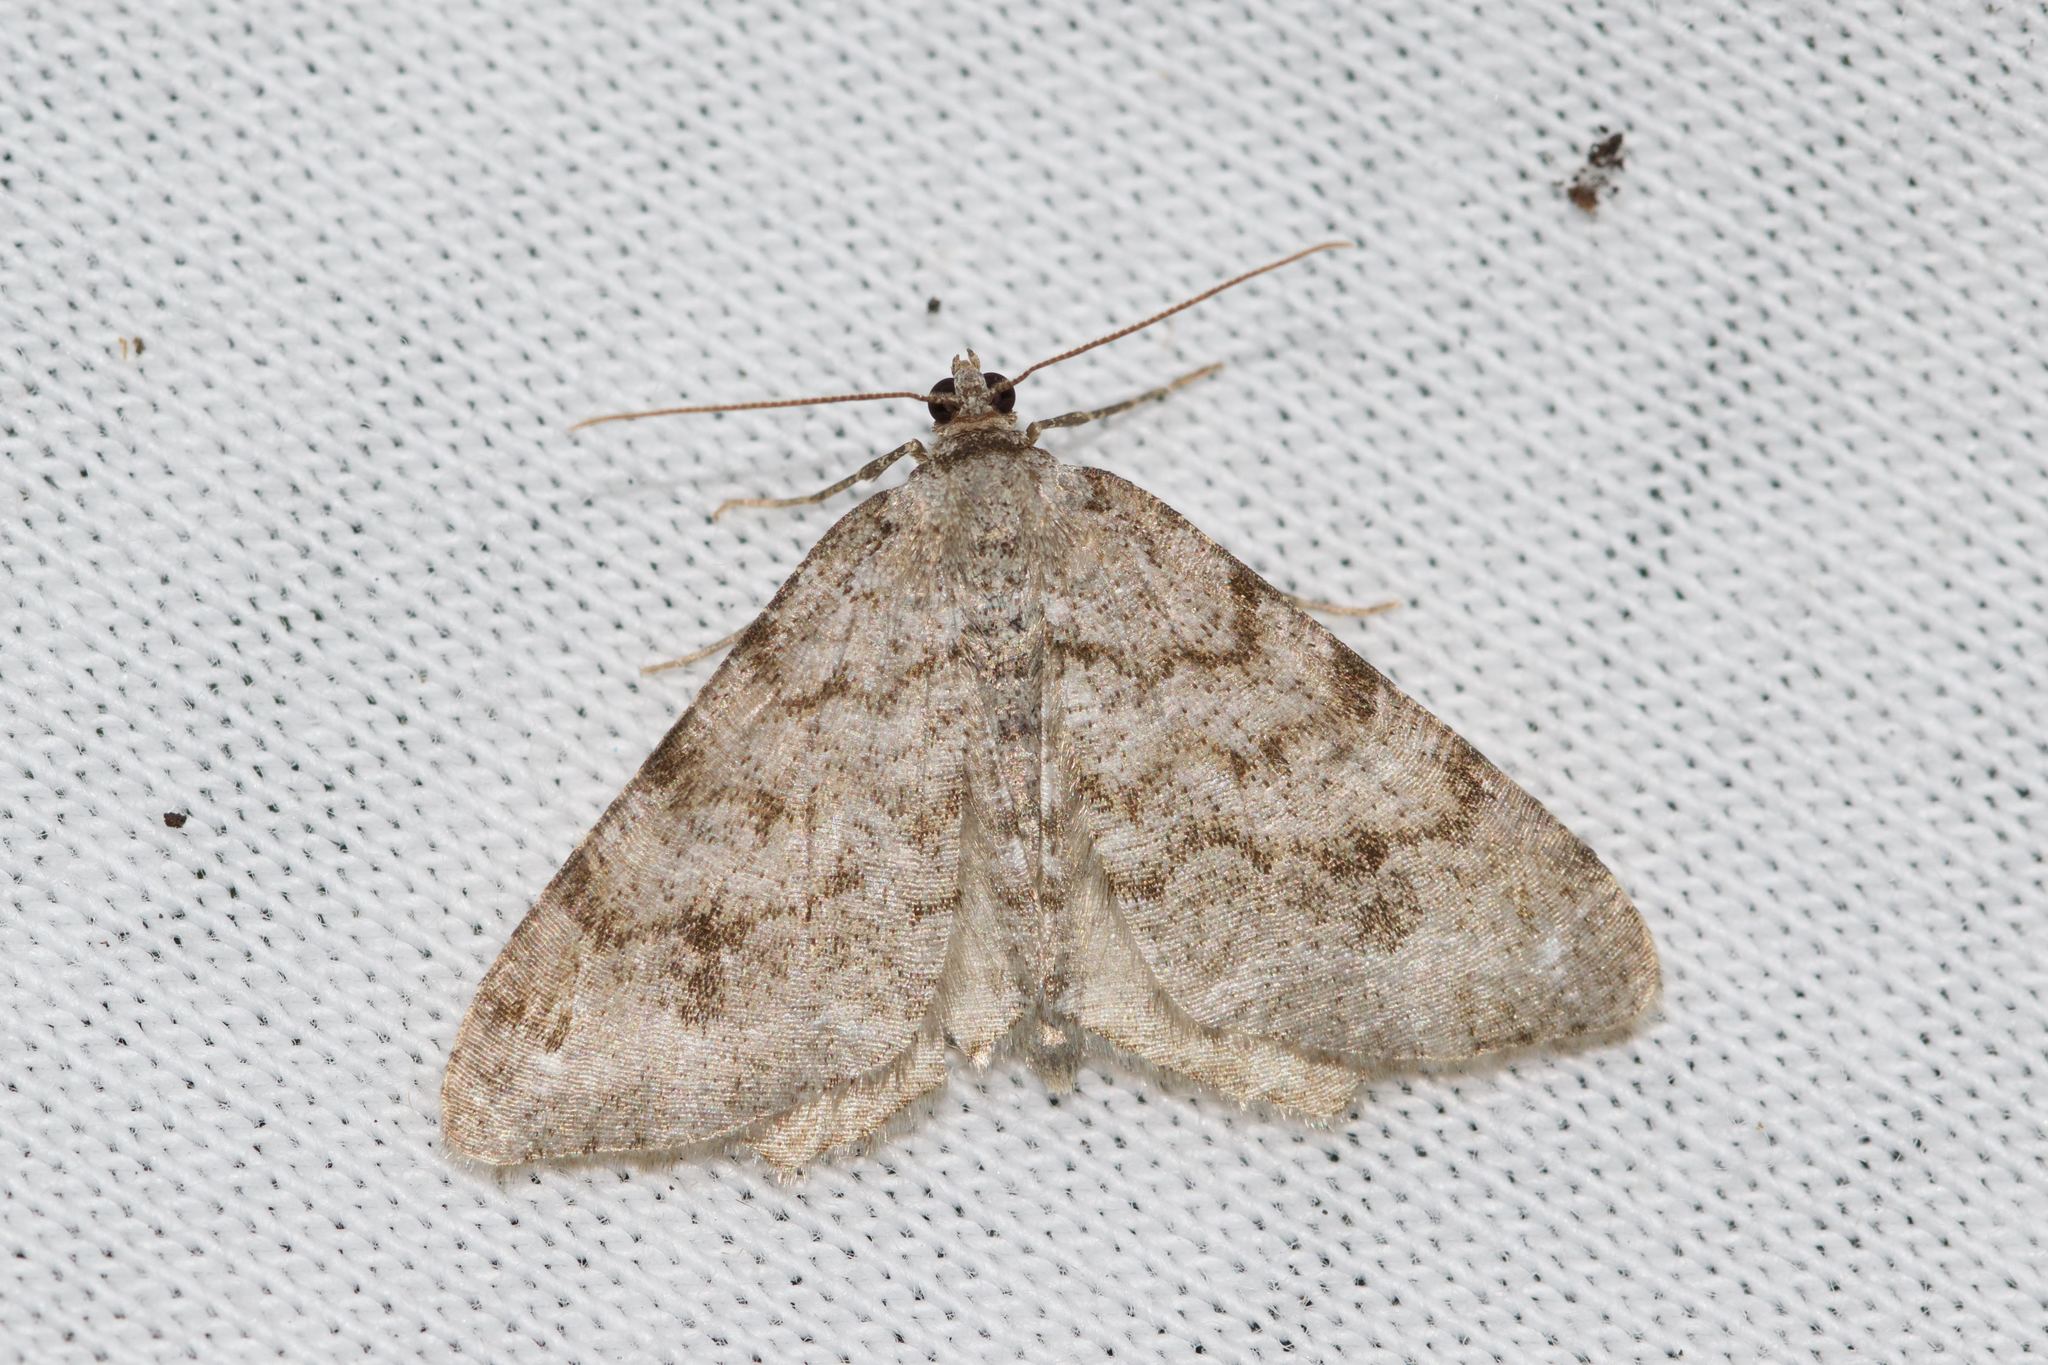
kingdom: Animalia
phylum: Arthropoda
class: Insecta
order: Lepidoptera
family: Geometridae
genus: Macaria
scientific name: Macaria signaria
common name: Dusky peacock
